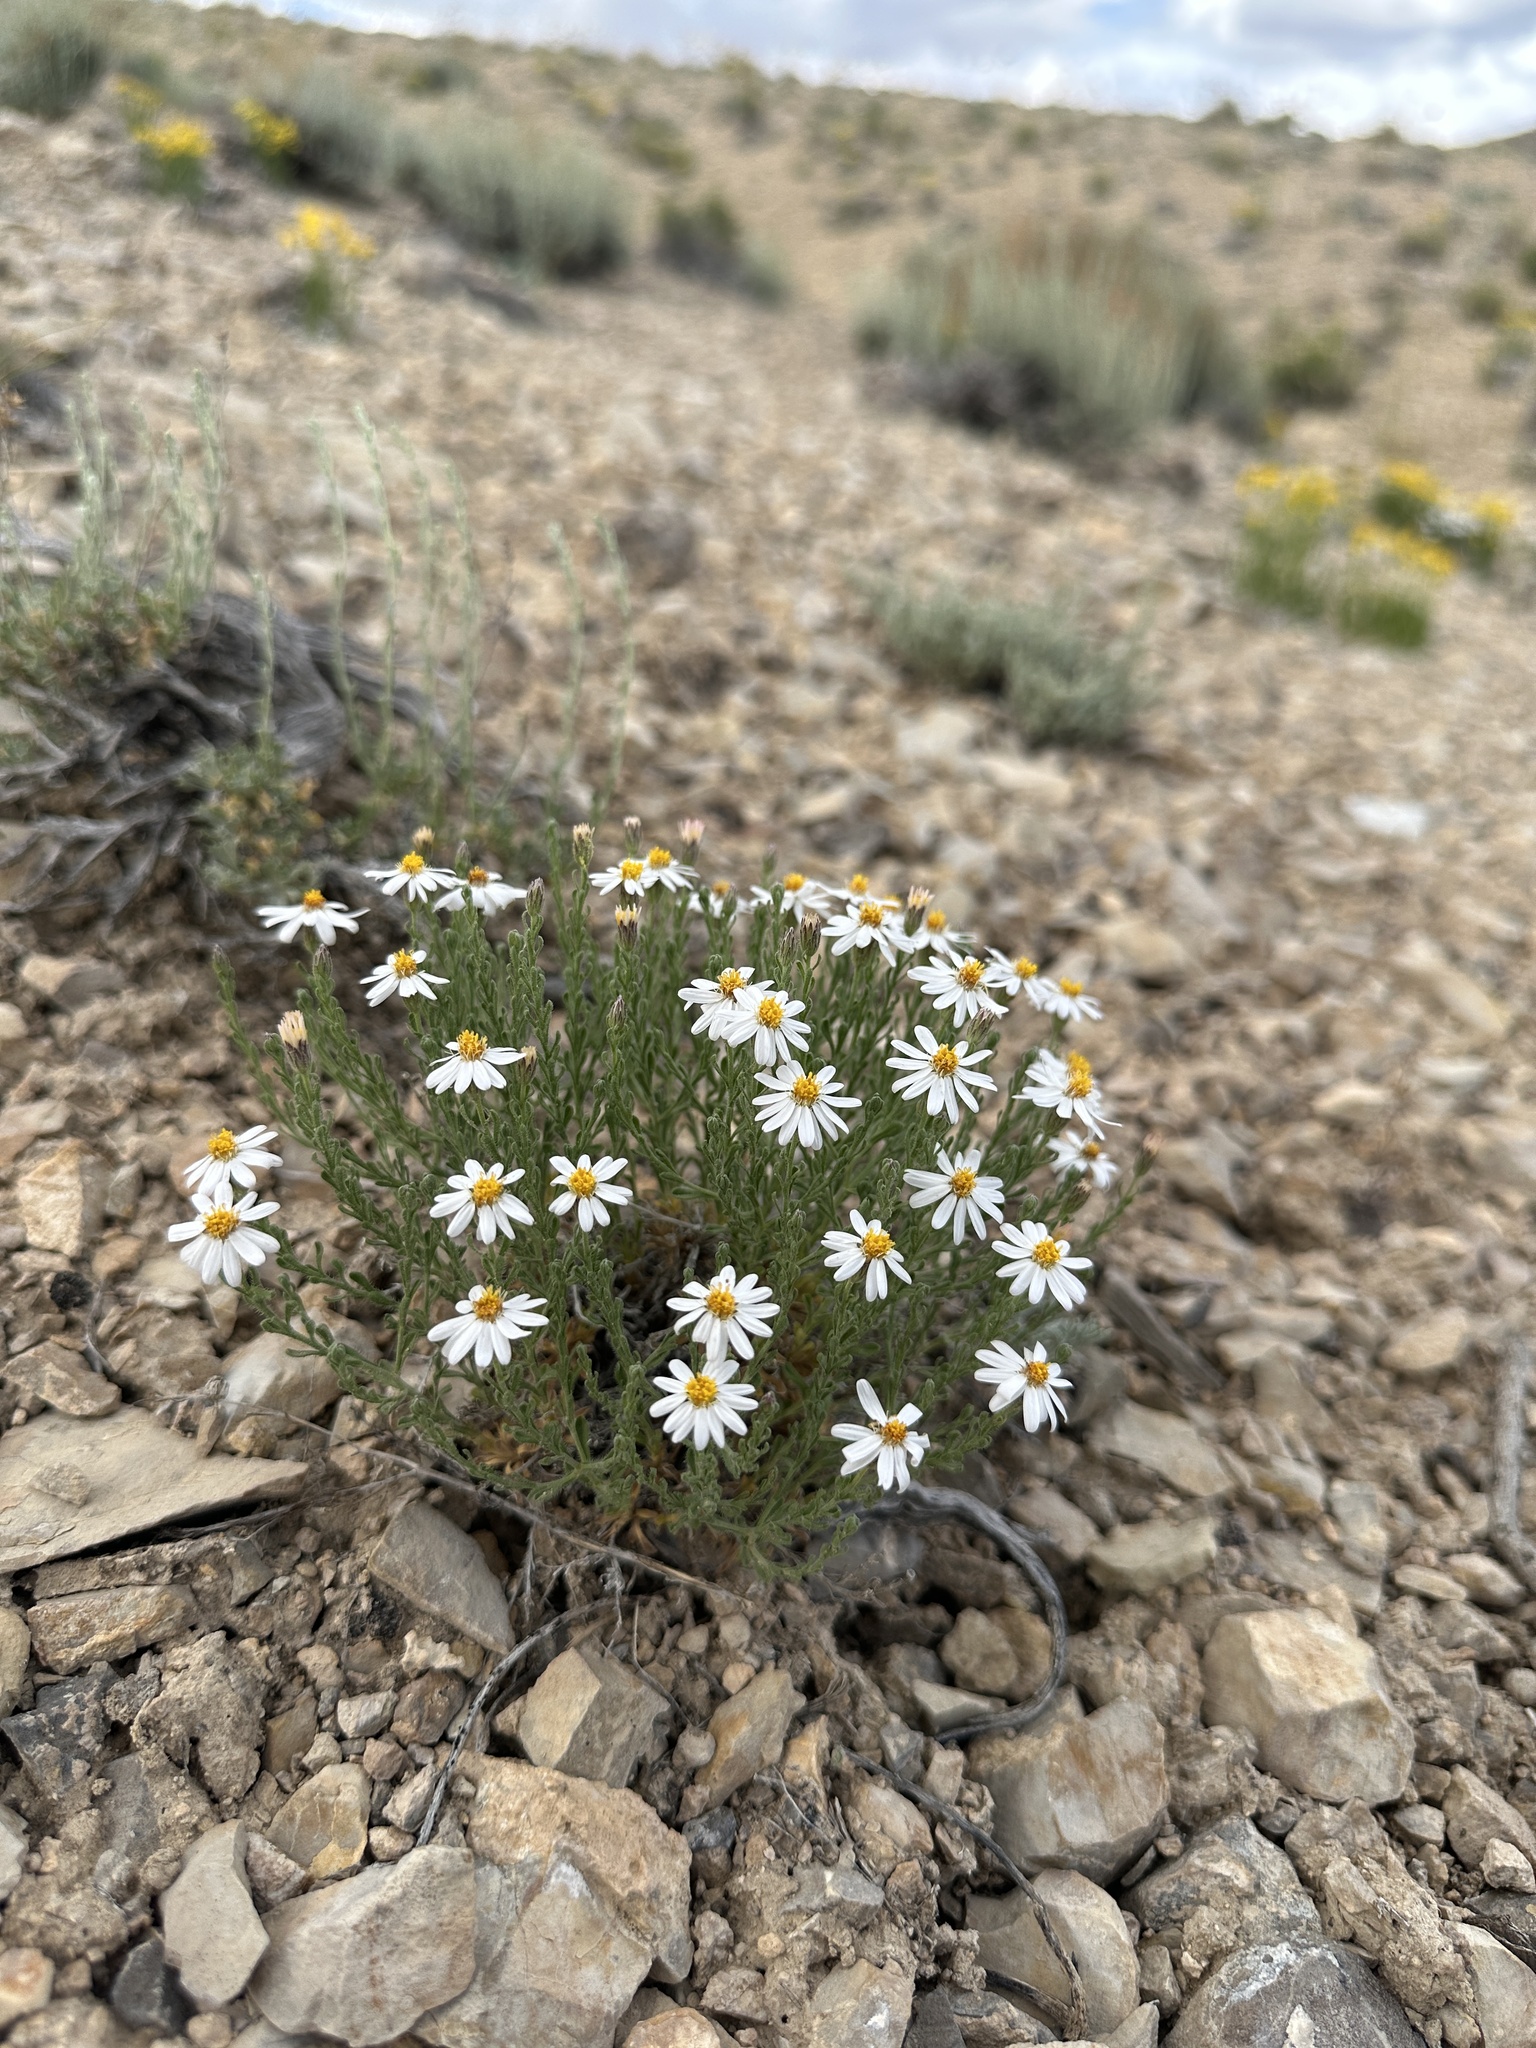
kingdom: Plantae
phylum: Tracheophyta
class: Magnoliopsida
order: Asterales
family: Asteraceae
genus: Chaetopappa
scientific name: Chaetopappa ericoides
